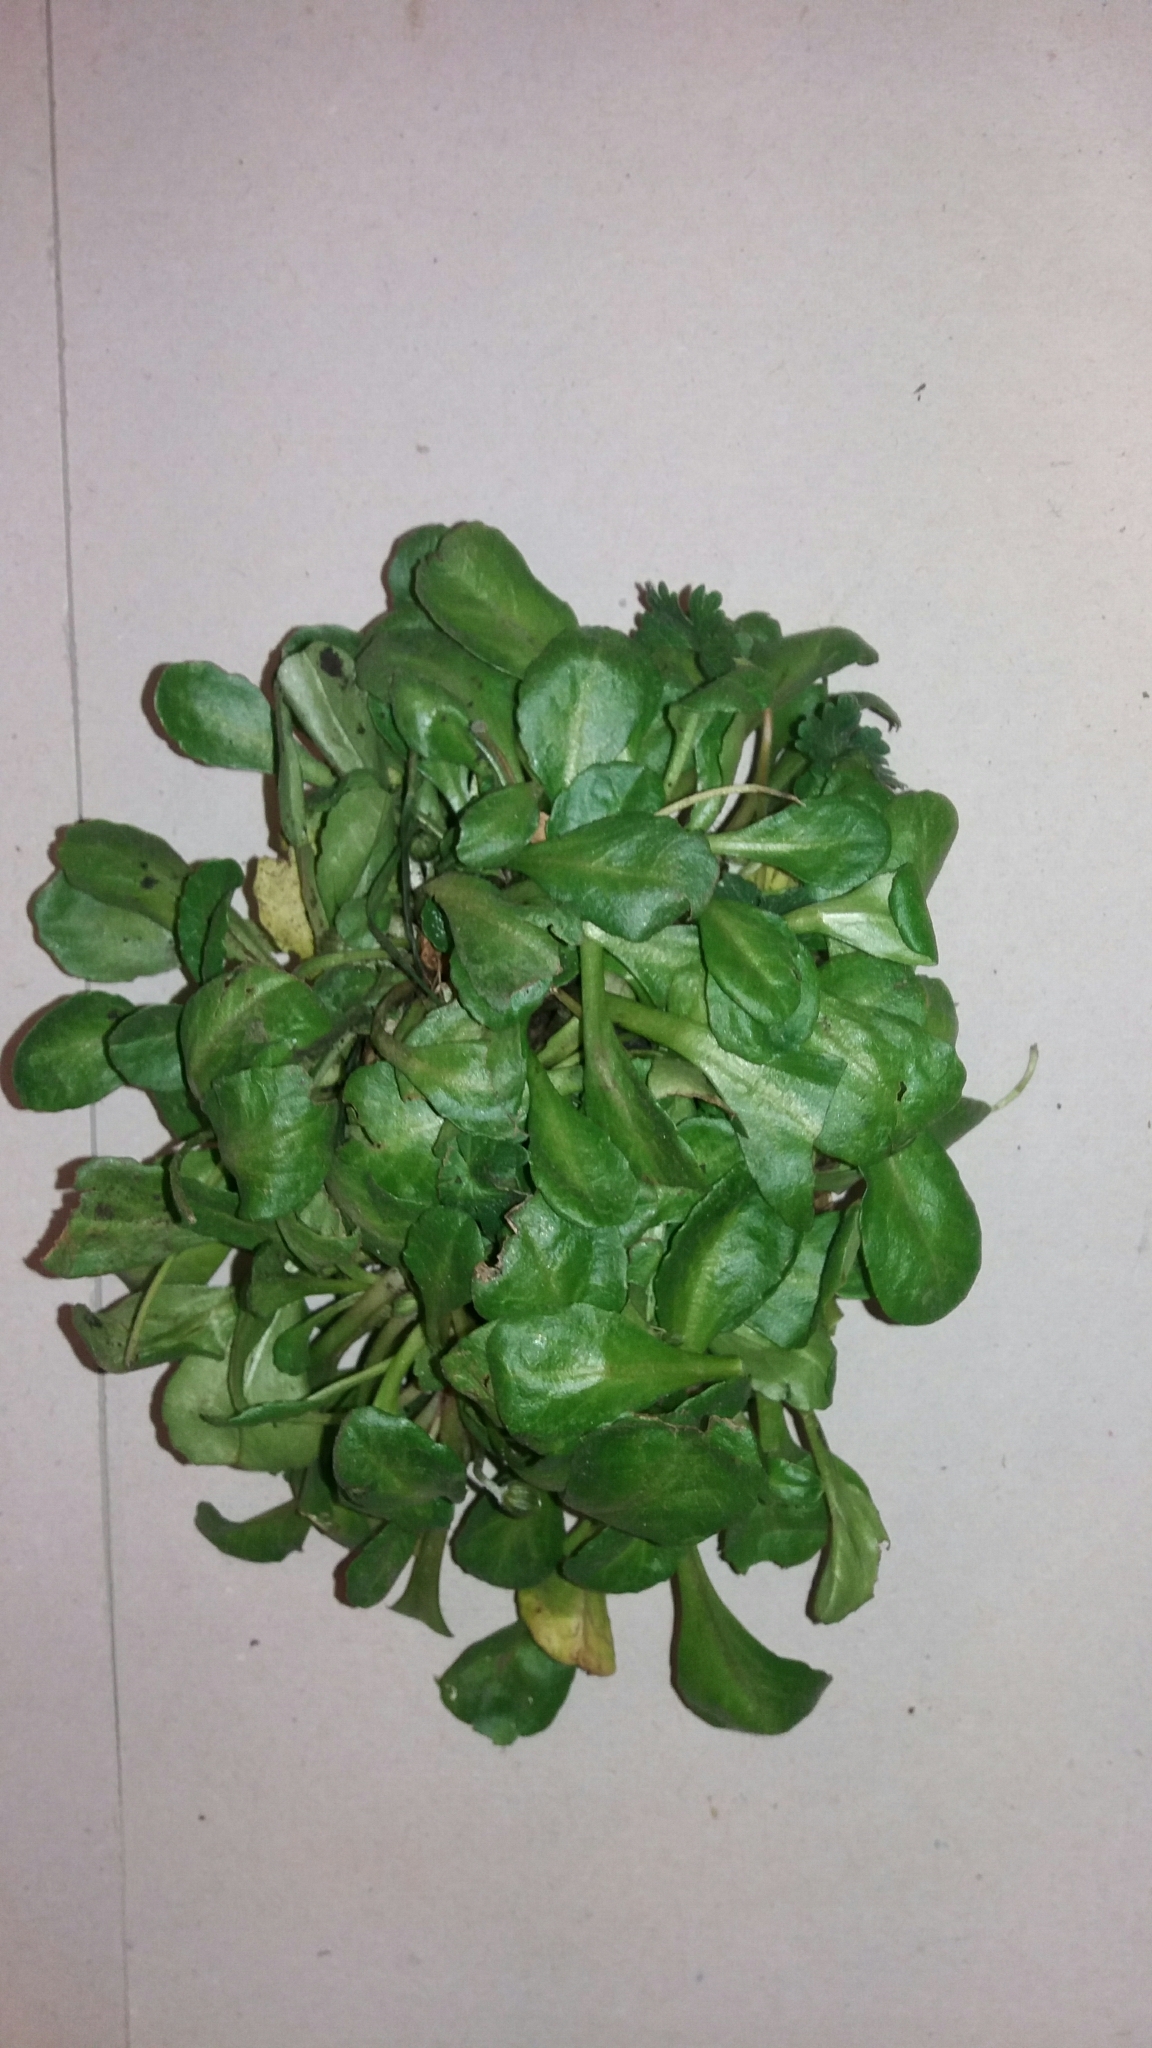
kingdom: Plantae
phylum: Tracheophyta
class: Magnoliopsida
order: Asterales
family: Asteraceae
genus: Bellis
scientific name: Bellis perennis
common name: Lawndaisy
